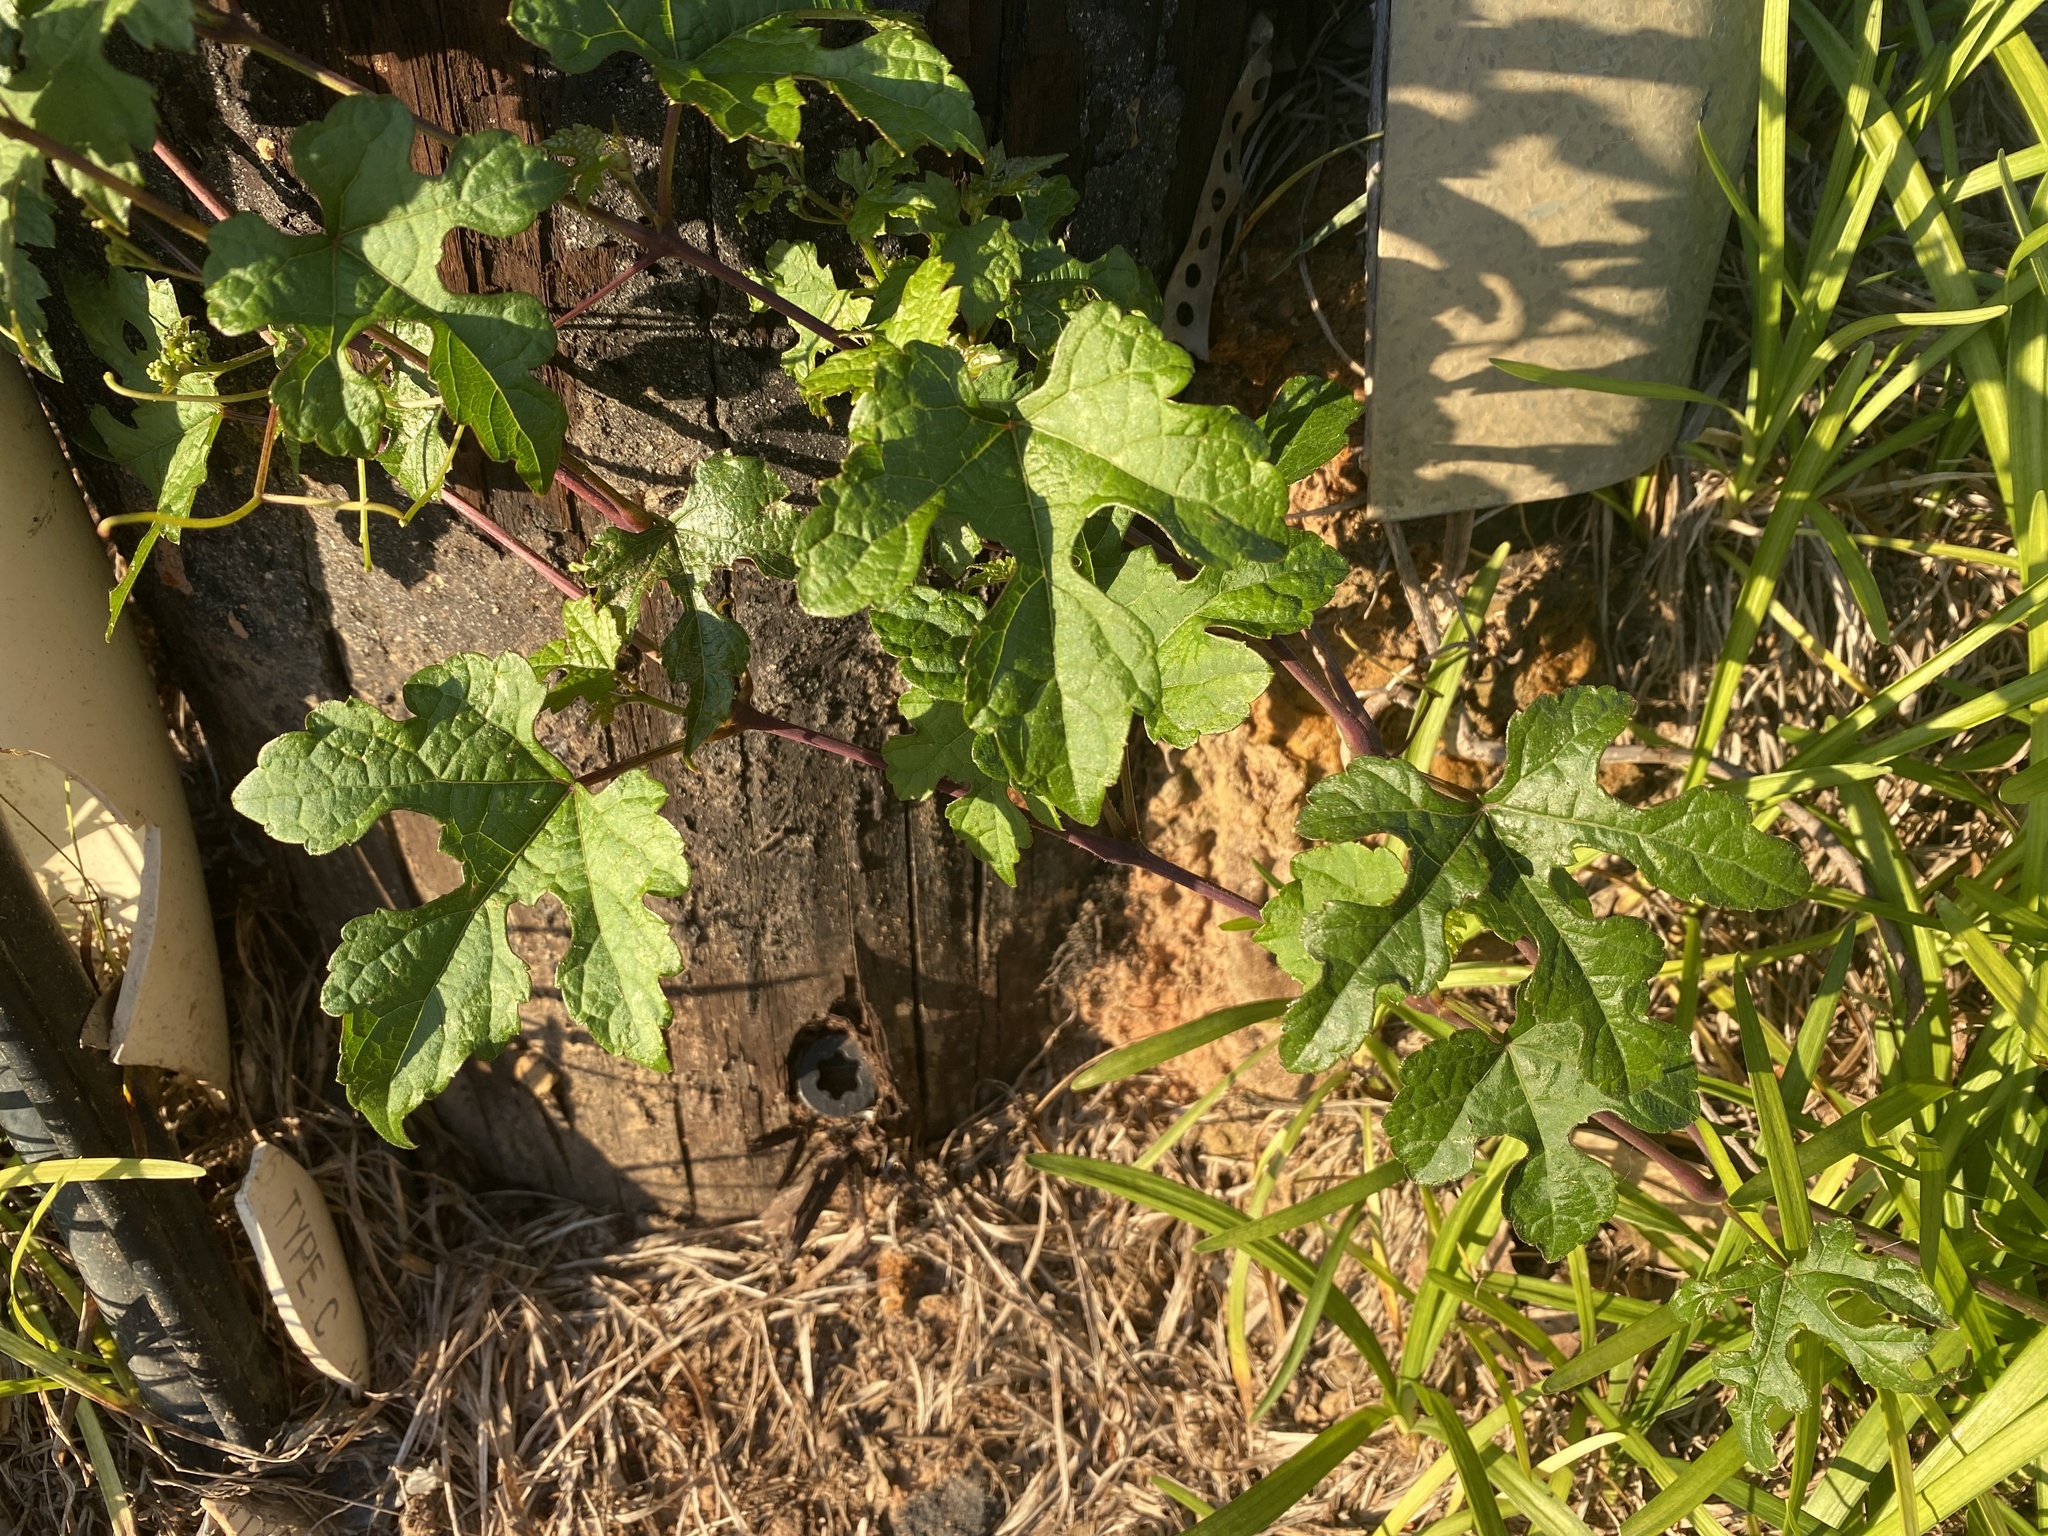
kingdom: Plantae
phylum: Tracheophyta
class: Magnoliopsida
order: Vitales
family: Vitaceae
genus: Vitis
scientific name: Vitis aestivalis
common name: Pigeon grape
